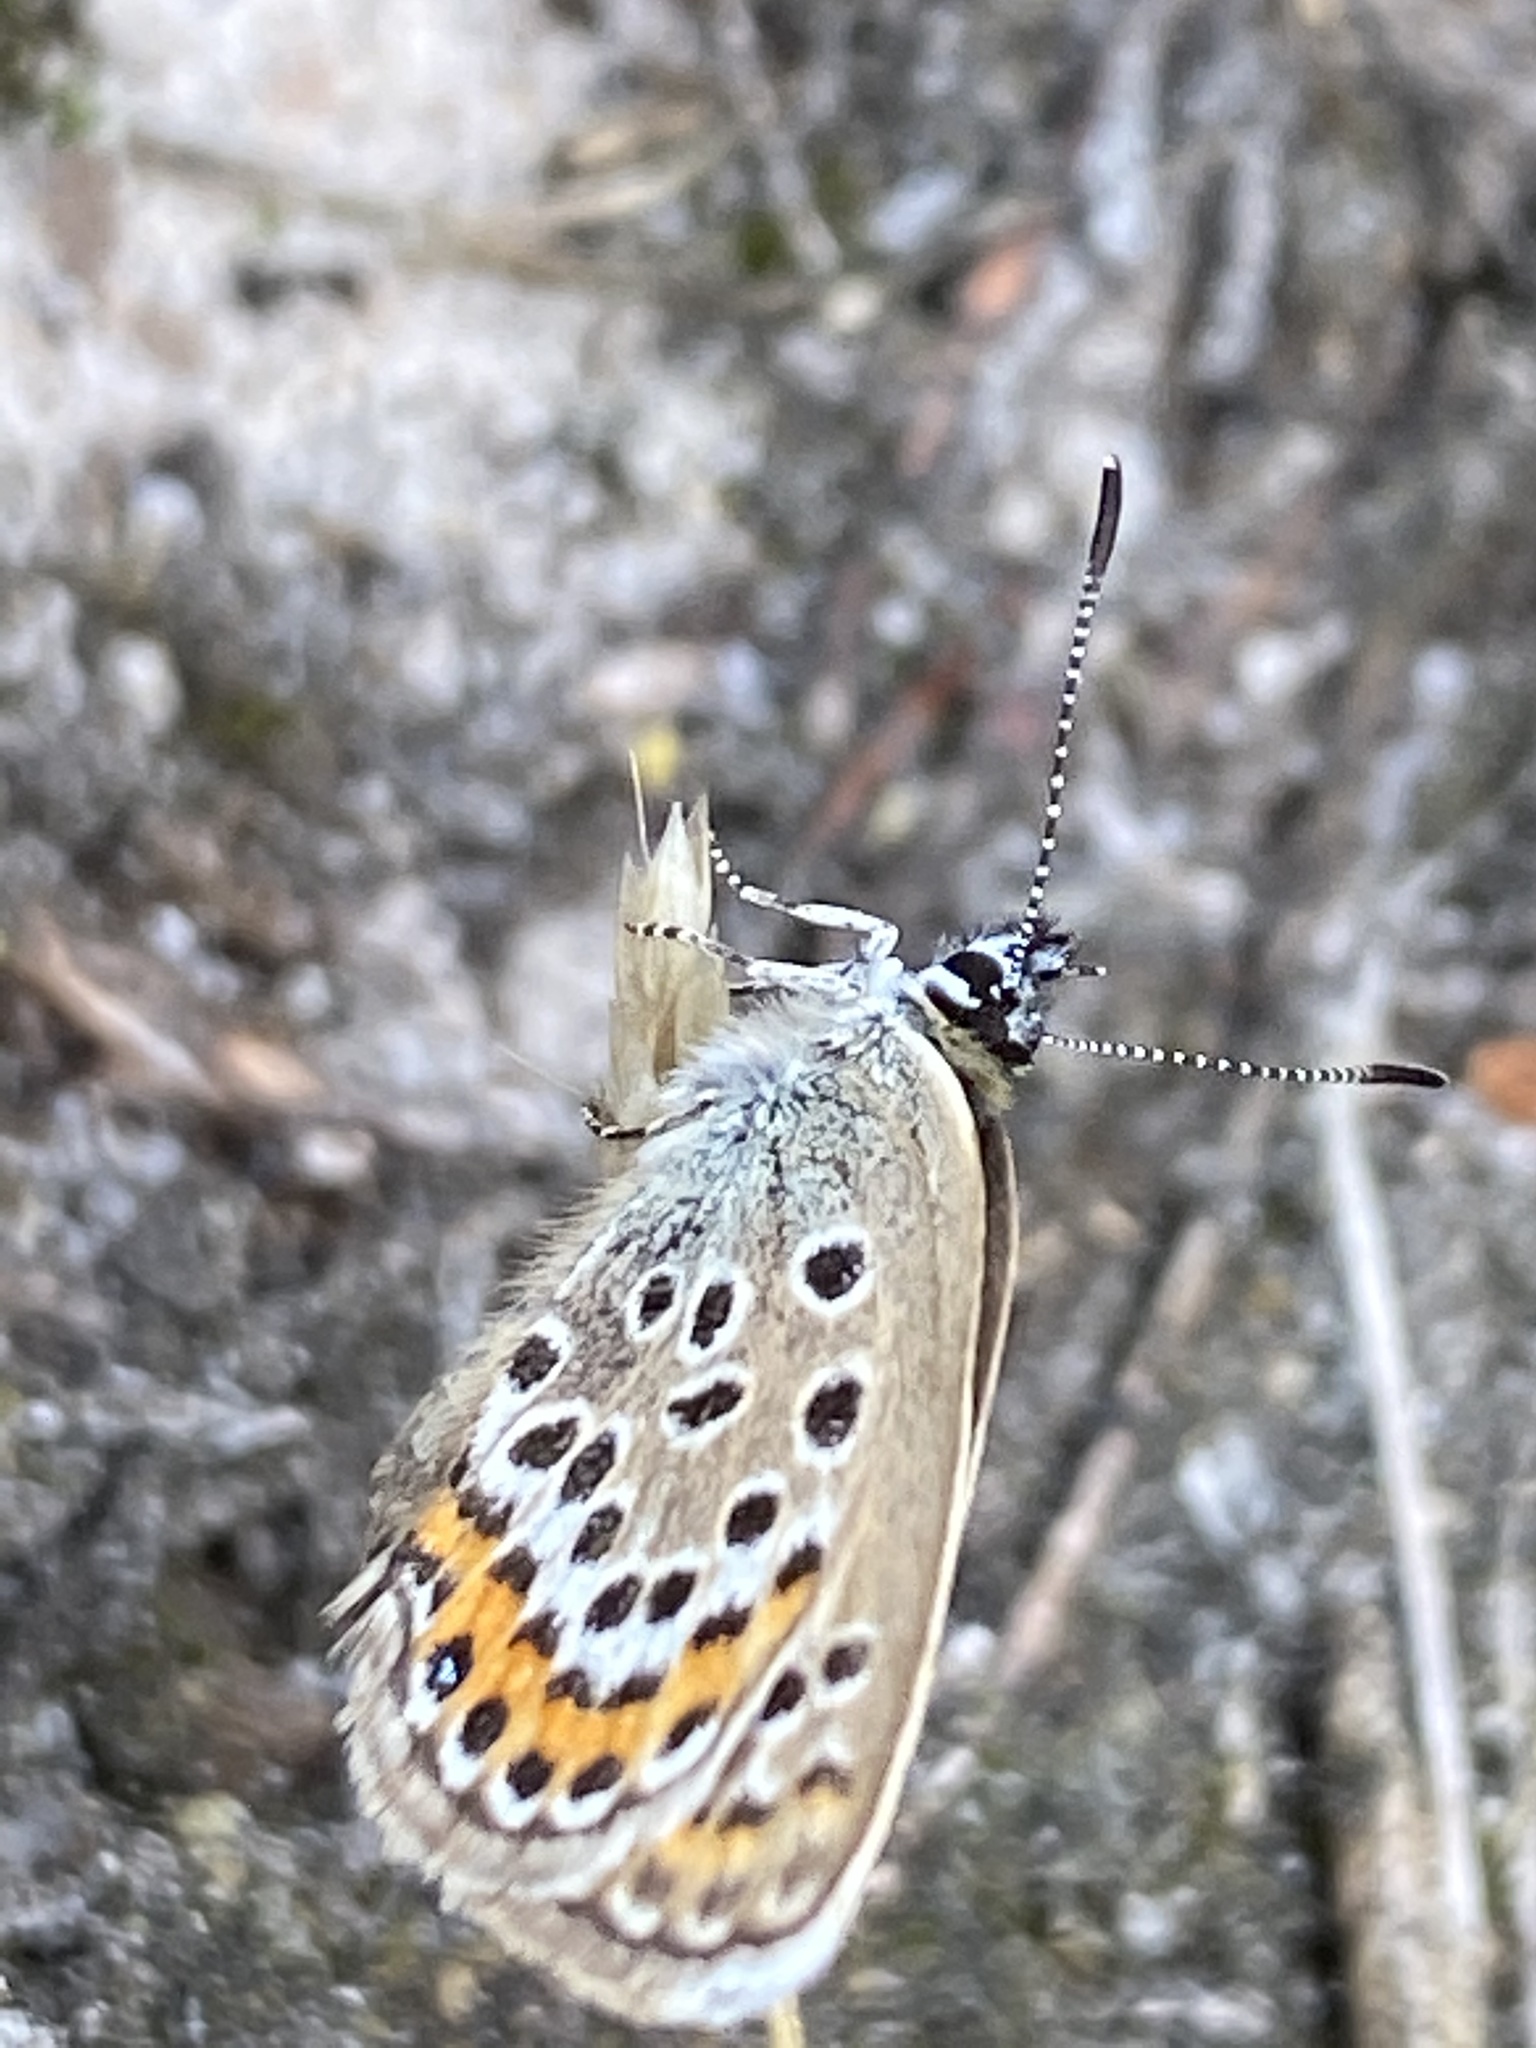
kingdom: Animalia
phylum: Arthropoda
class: Insecta
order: Lepidoptera
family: Lycaenidae
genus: Plebejus
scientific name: Plebejus argus
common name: Silver-studded blue
